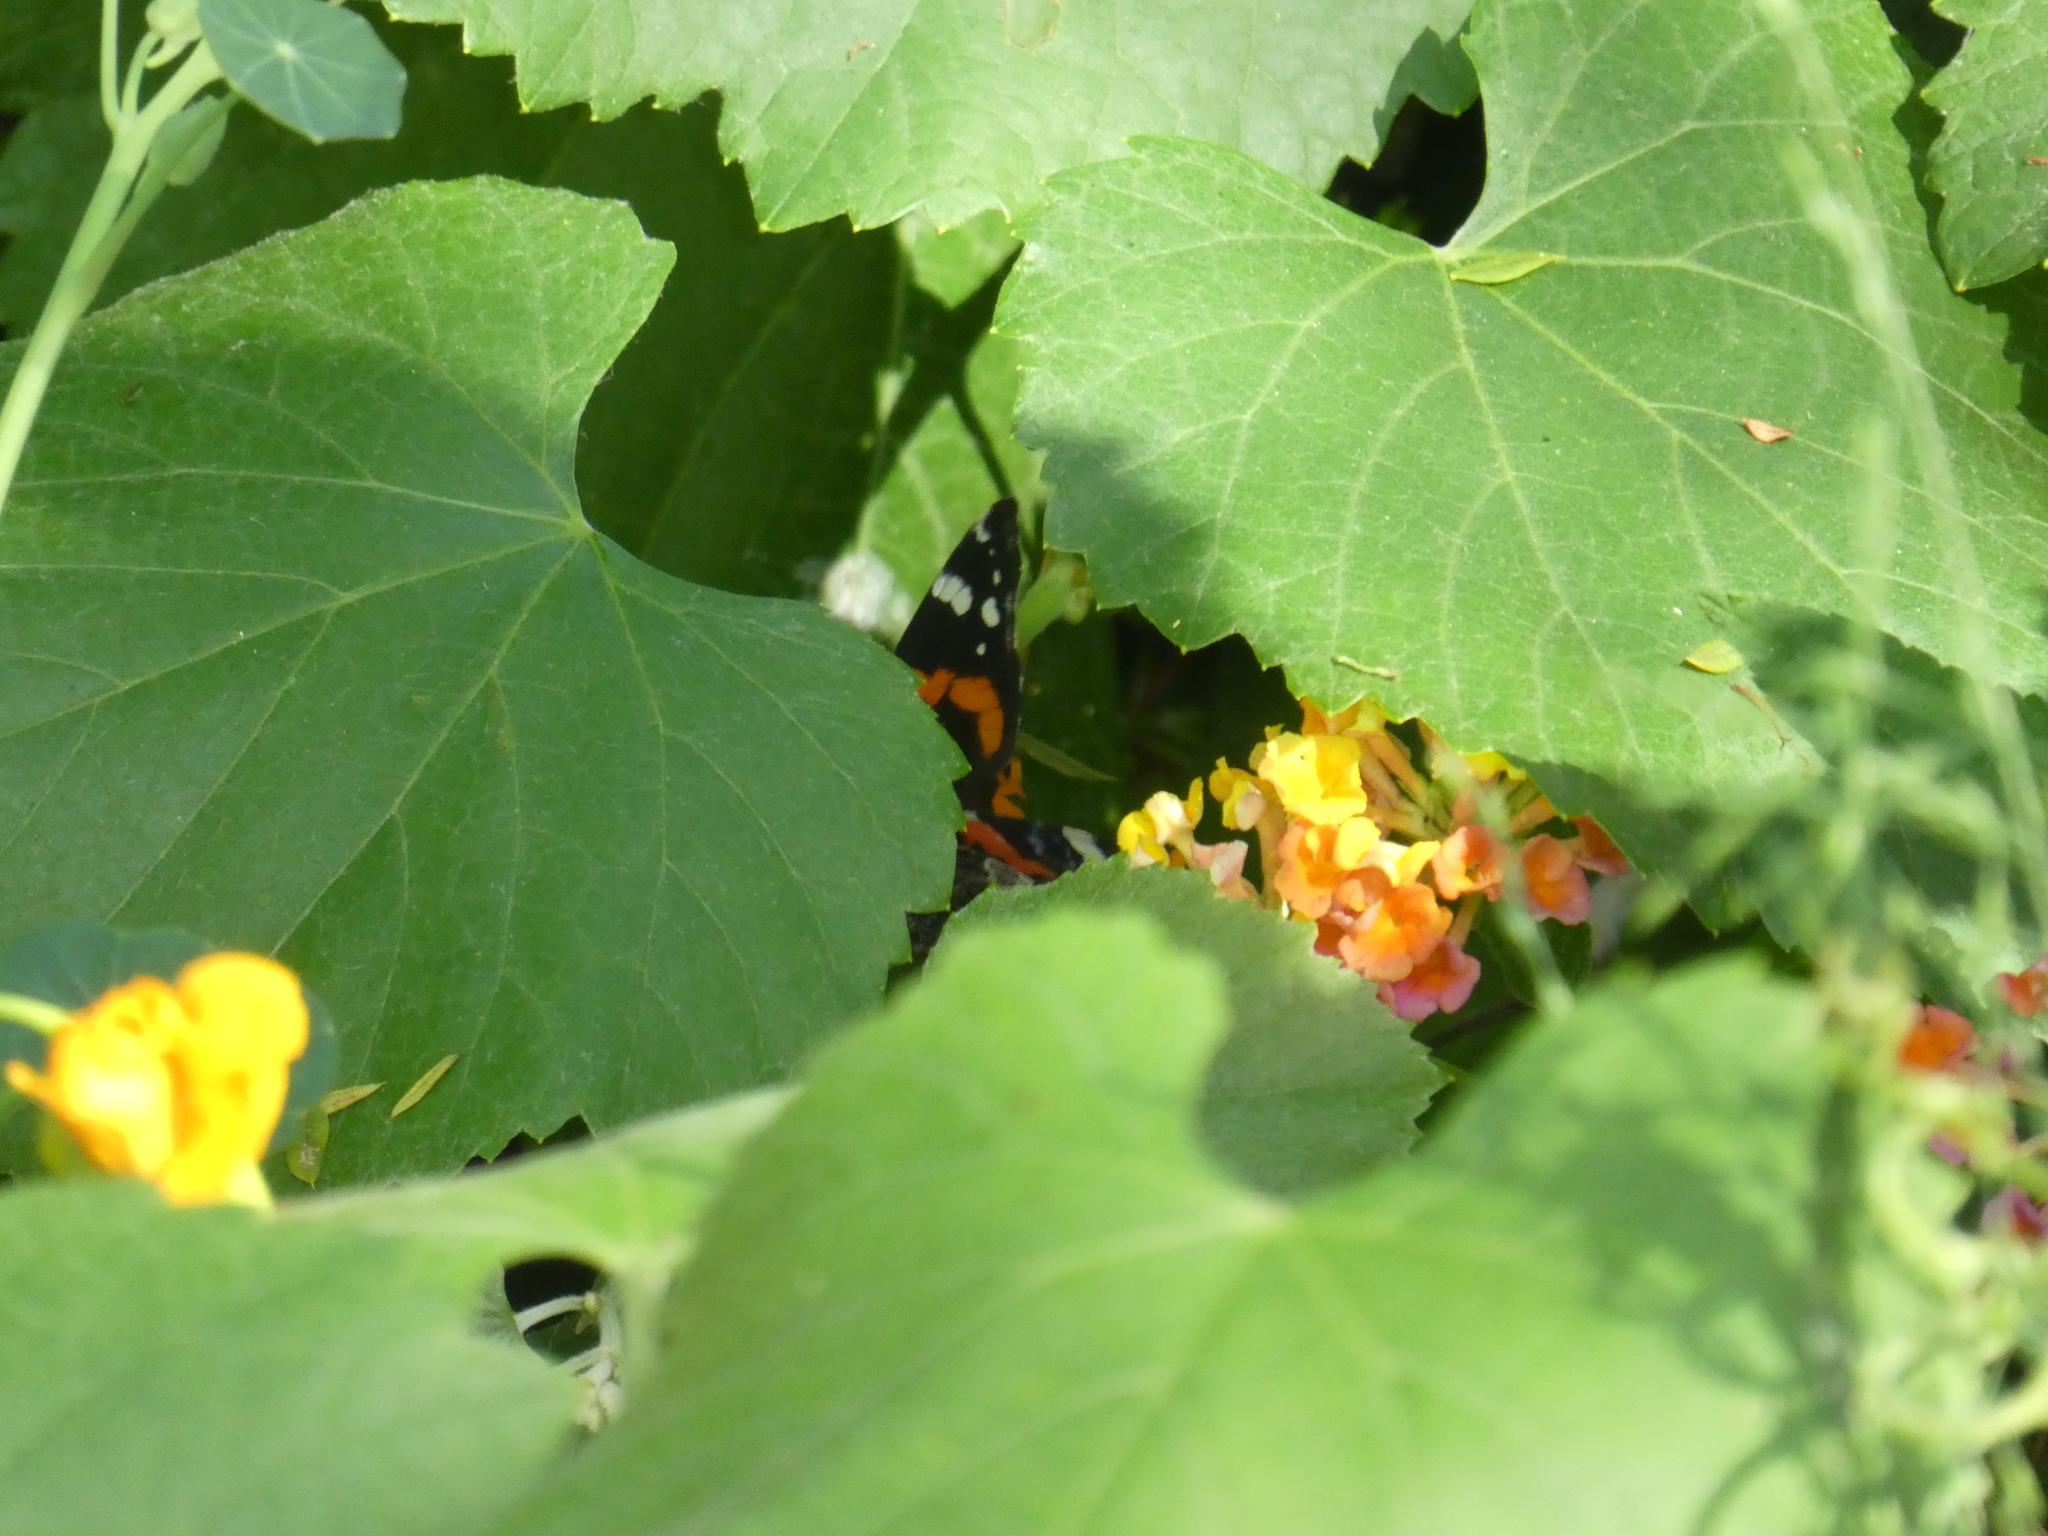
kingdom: Animalia
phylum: Arthropoda
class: Insecta
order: Lepidoptera
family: Nymphalidae
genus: Vanessa
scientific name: Vanessa atalanta
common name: Red admiral
